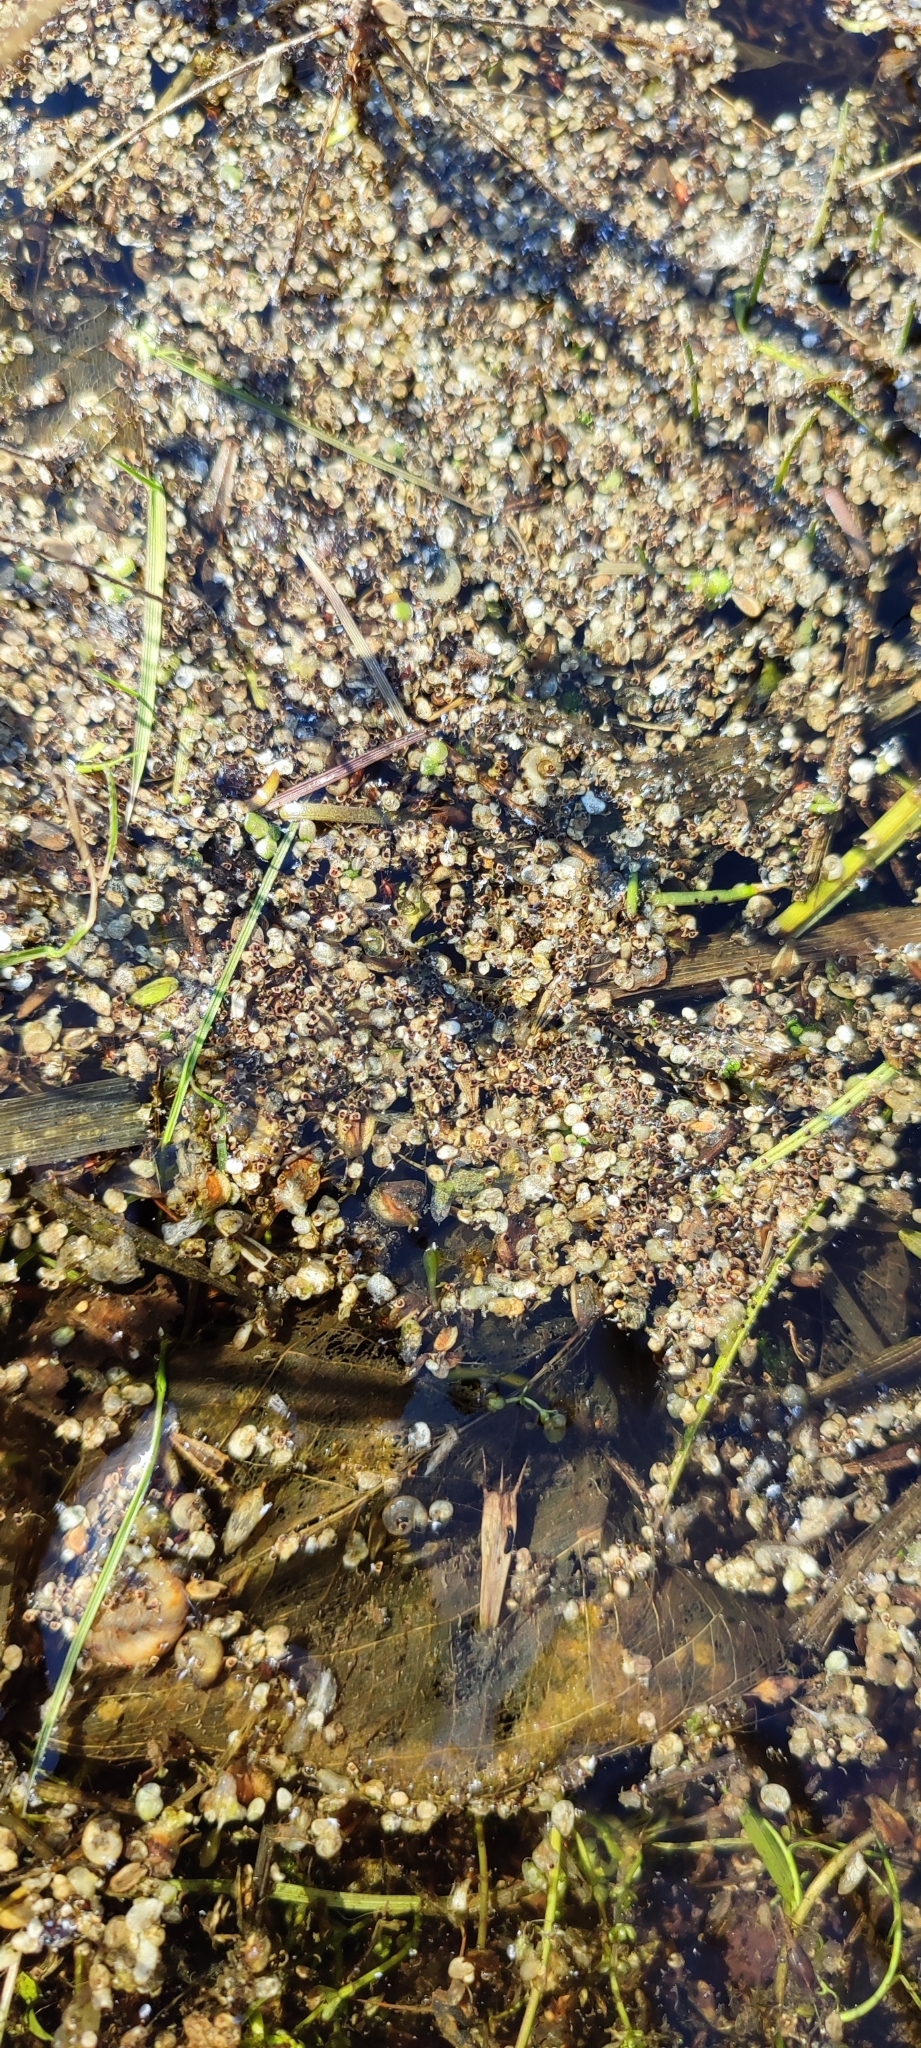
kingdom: Plantae
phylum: Tracheophyta
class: Liliopsida
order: Alismatales
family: Araceae
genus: Lemna
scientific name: Lemna minor
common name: Common duckweed
